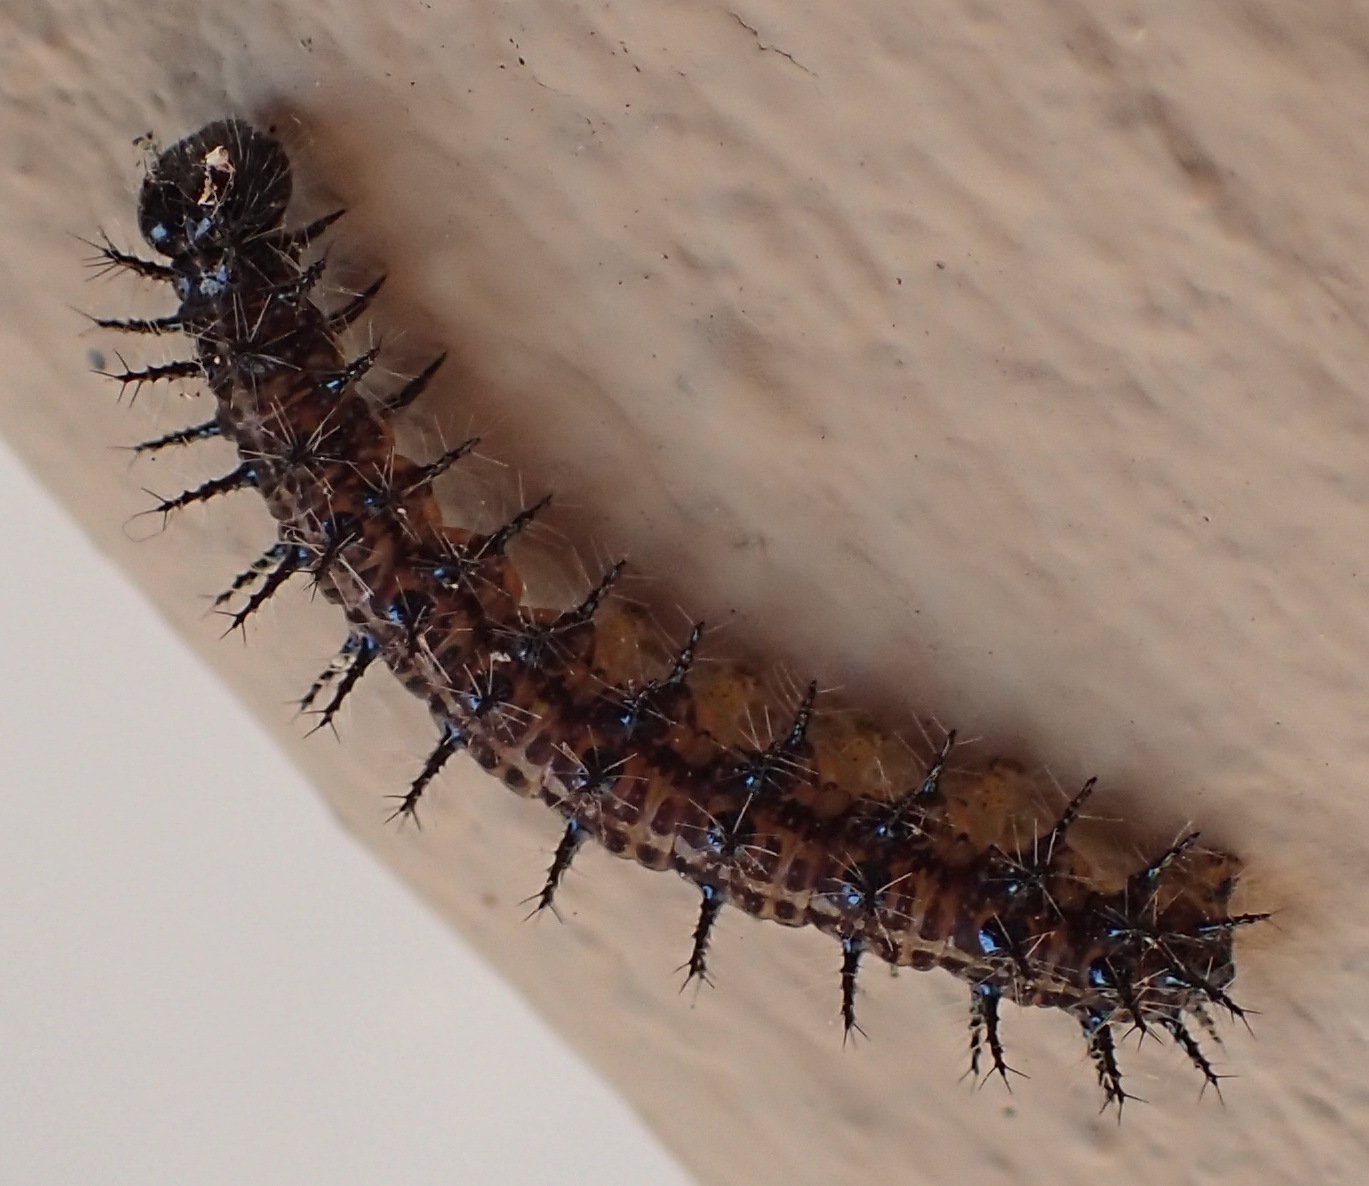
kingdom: Animalia
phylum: Arthropoda
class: Insecta
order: Lepidoptera
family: Nymphalidae
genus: Acraea
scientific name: Acraea horta
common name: Garden acraea
